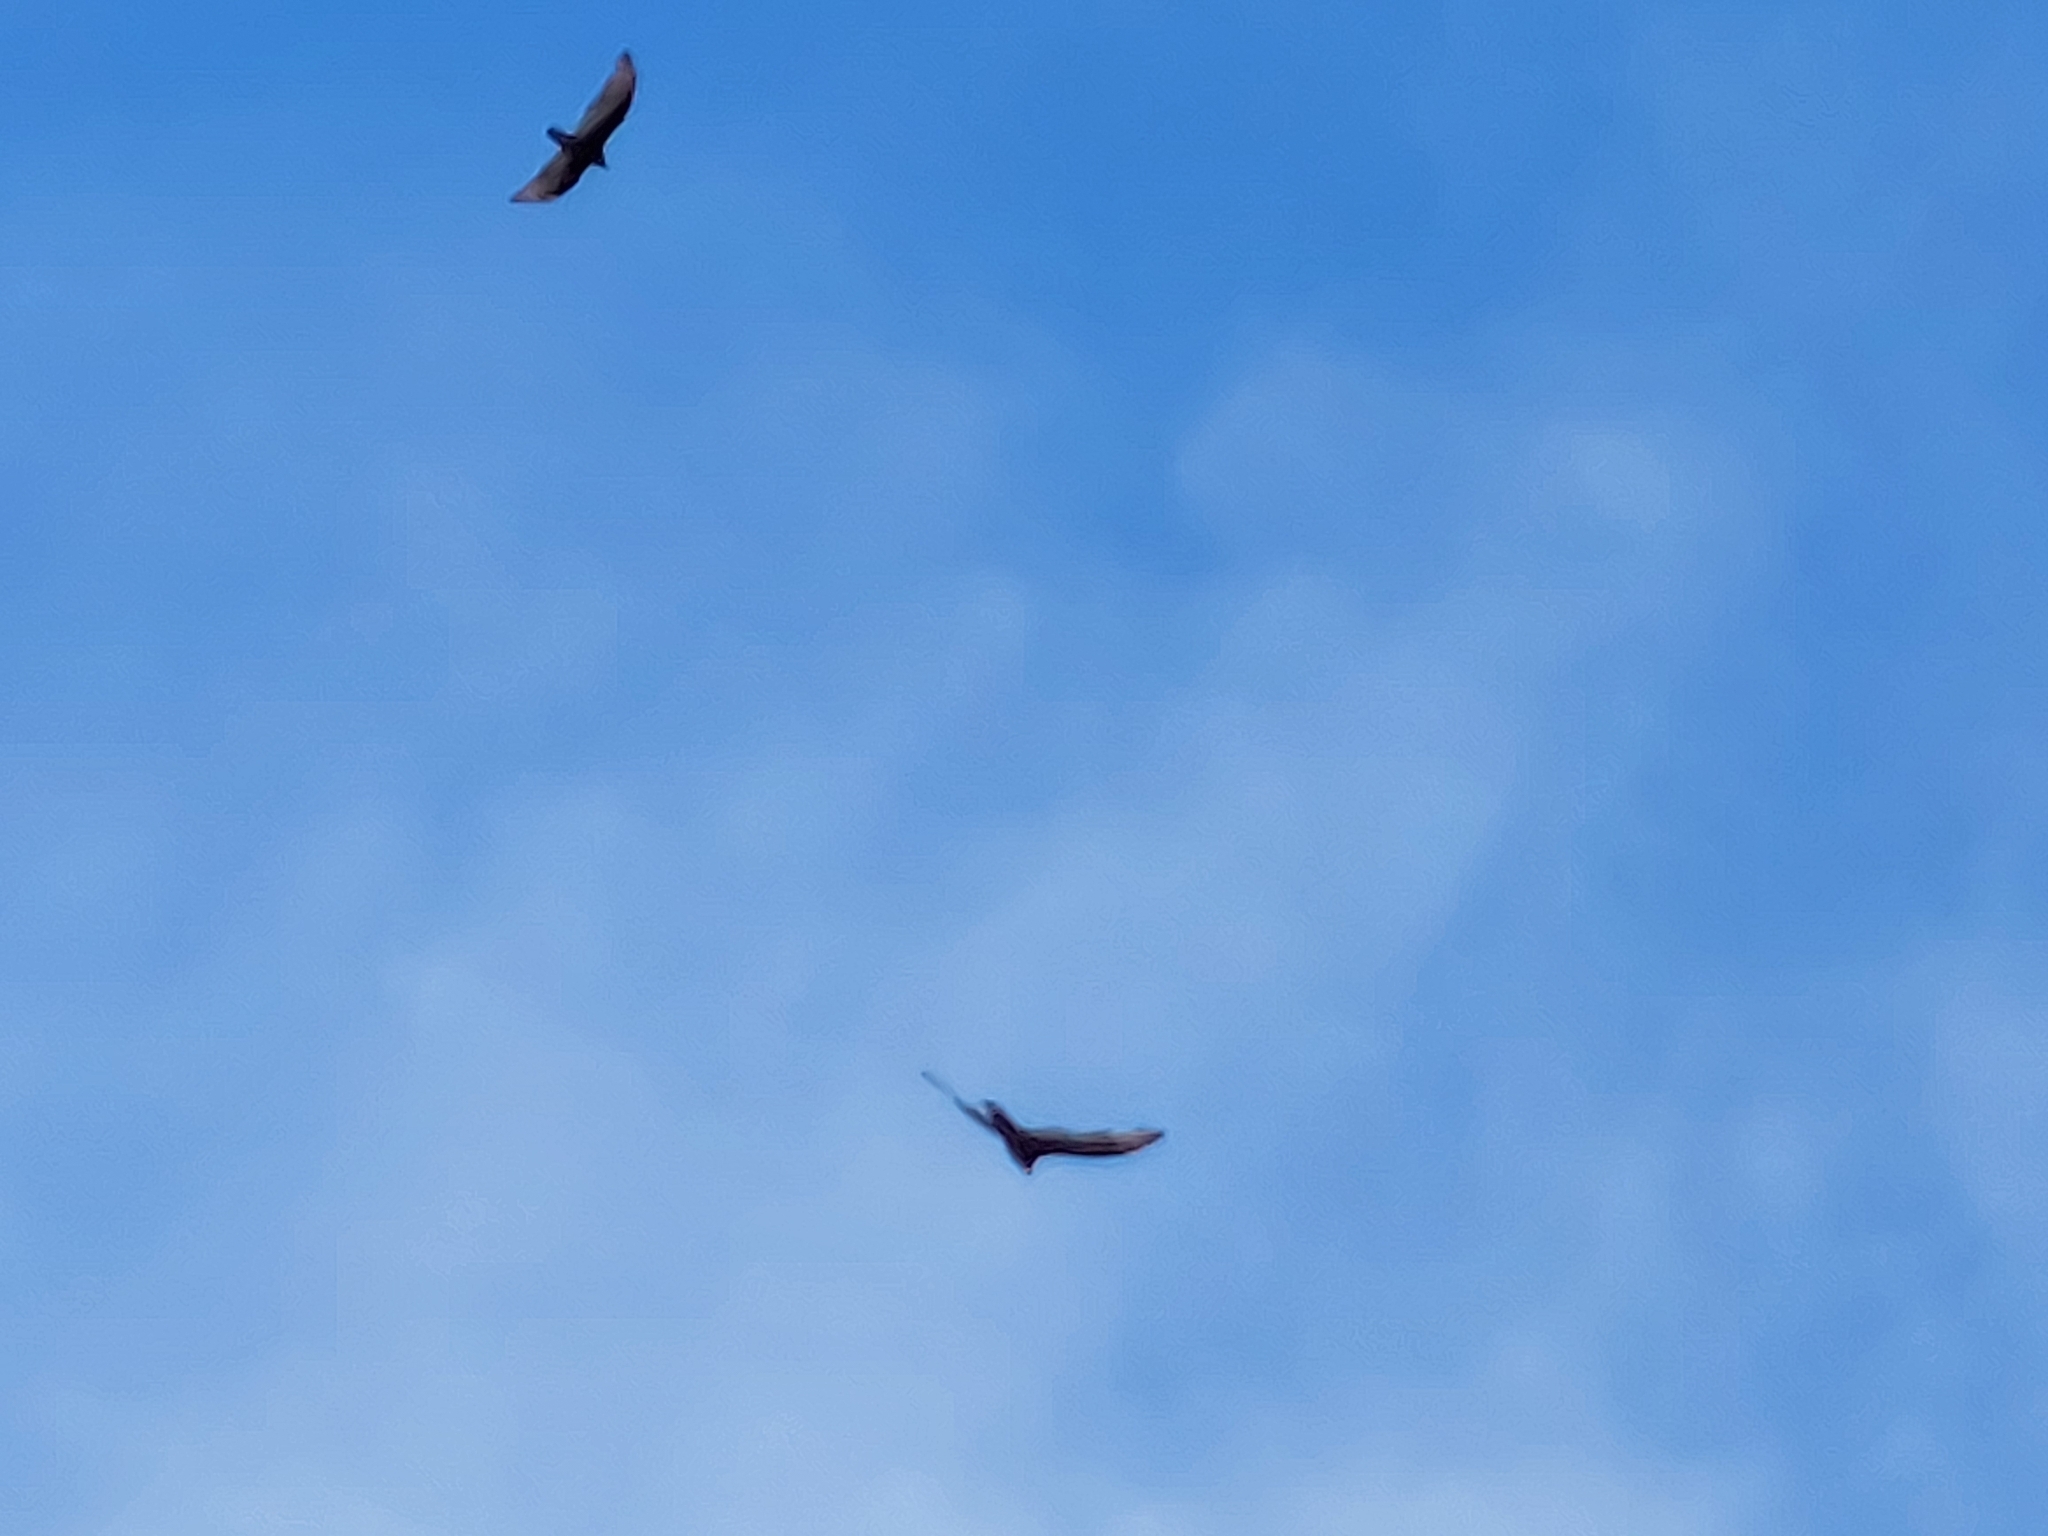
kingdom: Animalia
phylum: Chordata
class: Aves
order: Accipitriformes
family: Cathartidae
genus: Cathartes
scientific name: Cathartes aura
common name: Turkey vulture
